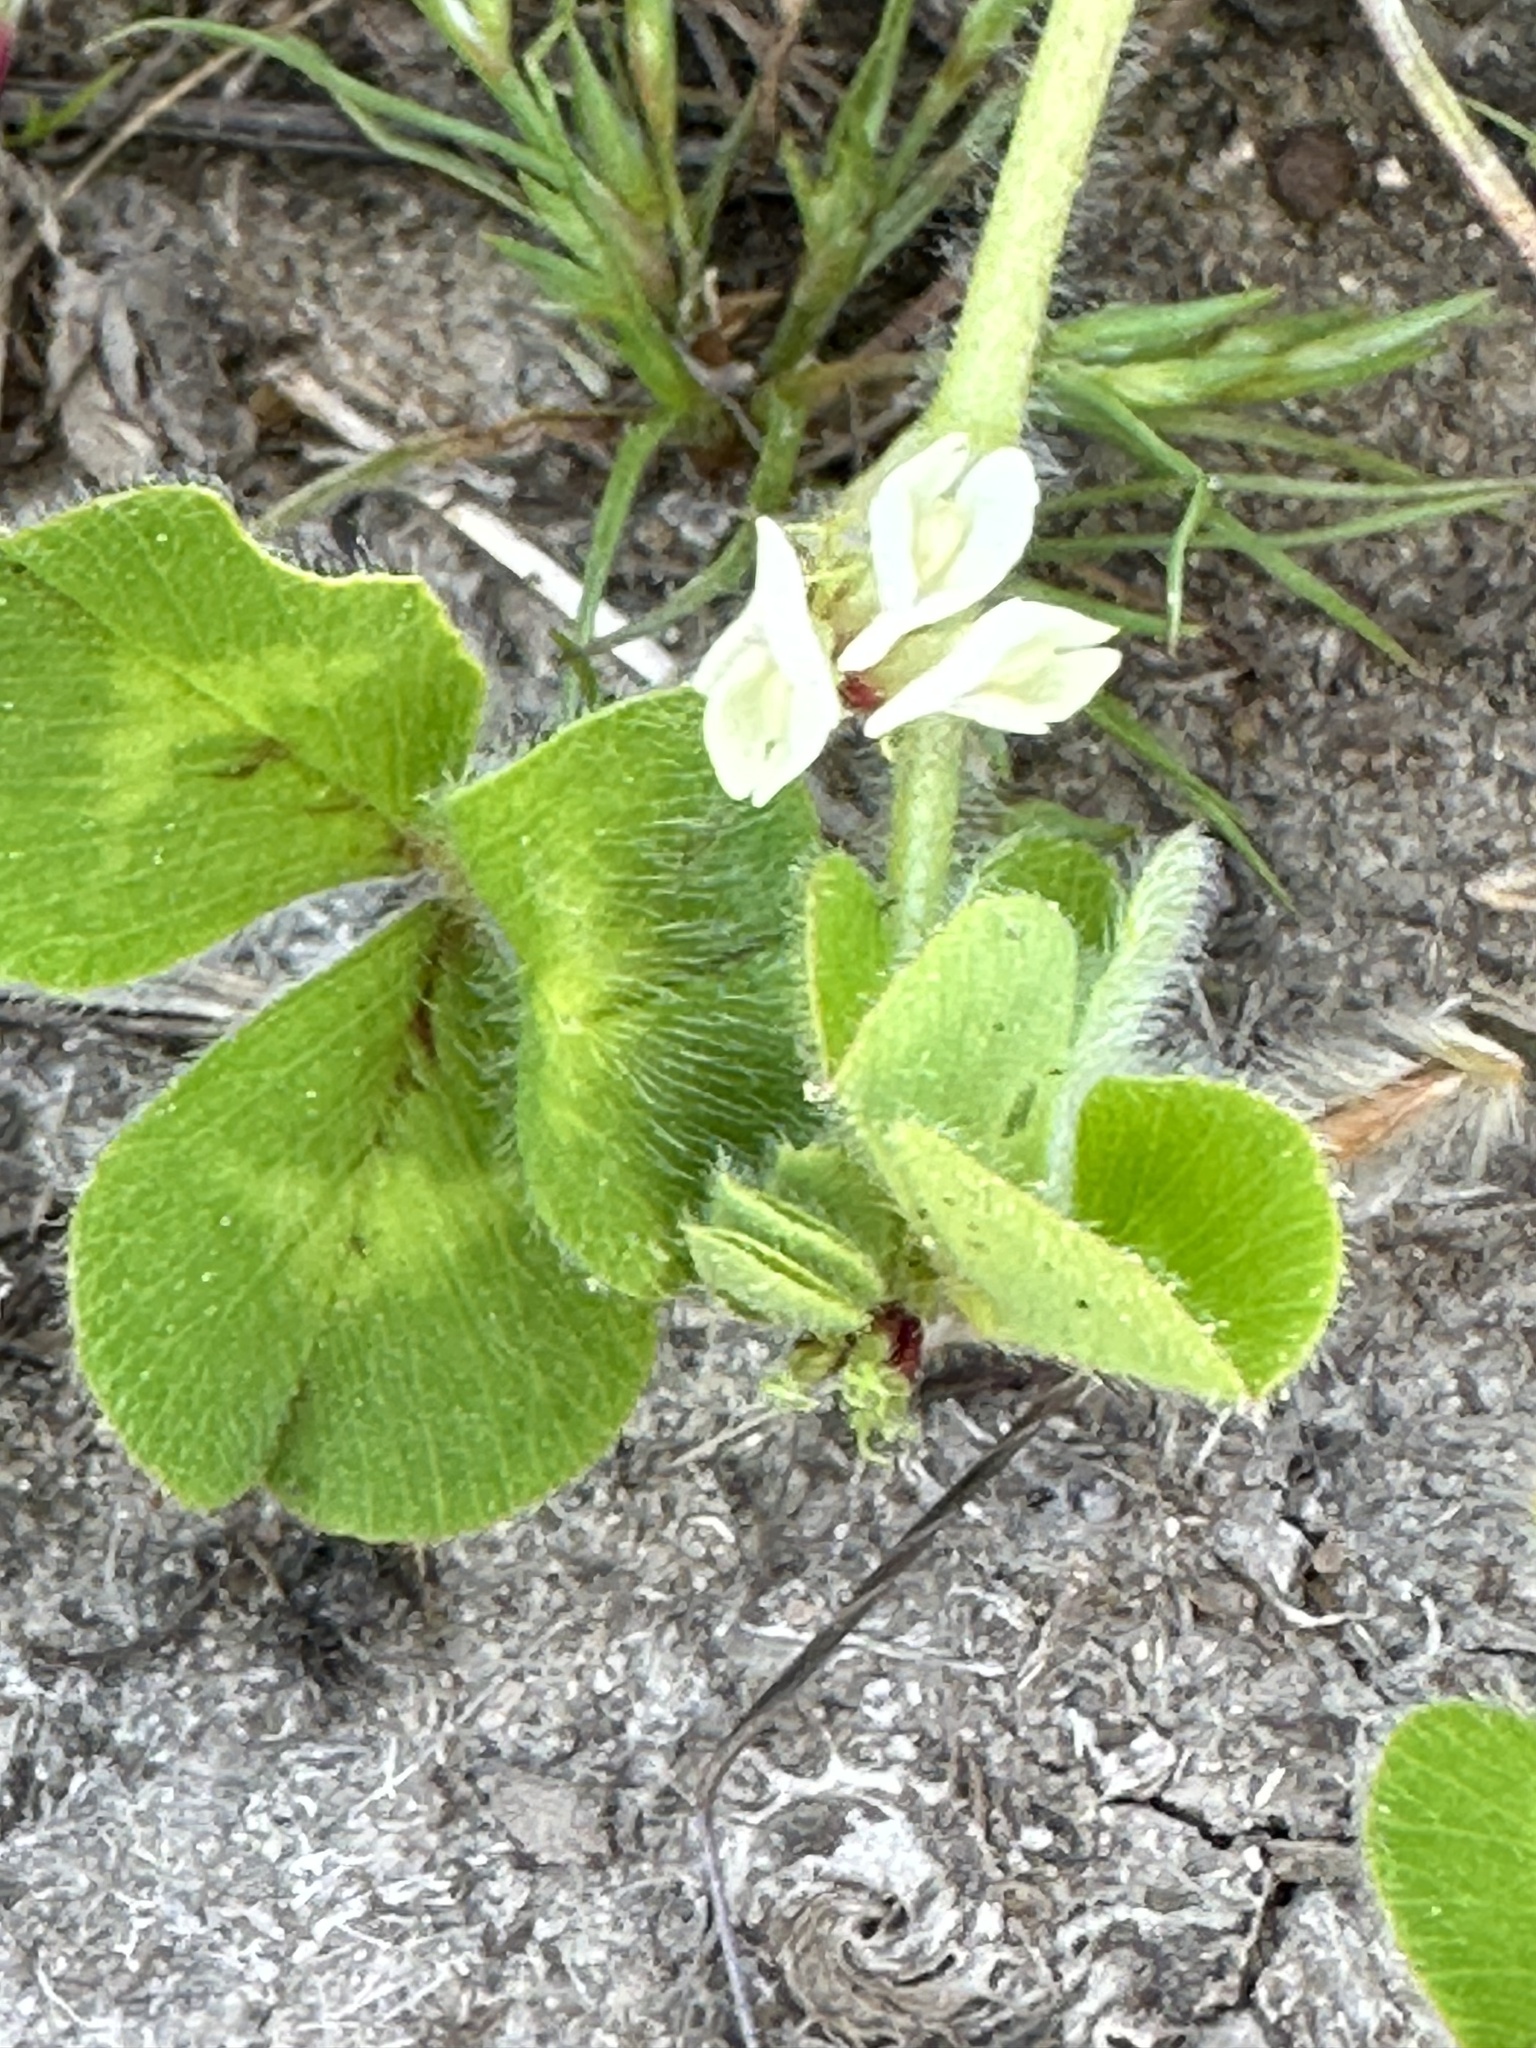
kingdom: Plantae
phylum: Tracheophyta
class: Magnoliopsida
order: Fabales
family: Fabaceae
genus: Trifolium
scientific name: Trifolium subterraneum
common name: Subterranean clover
